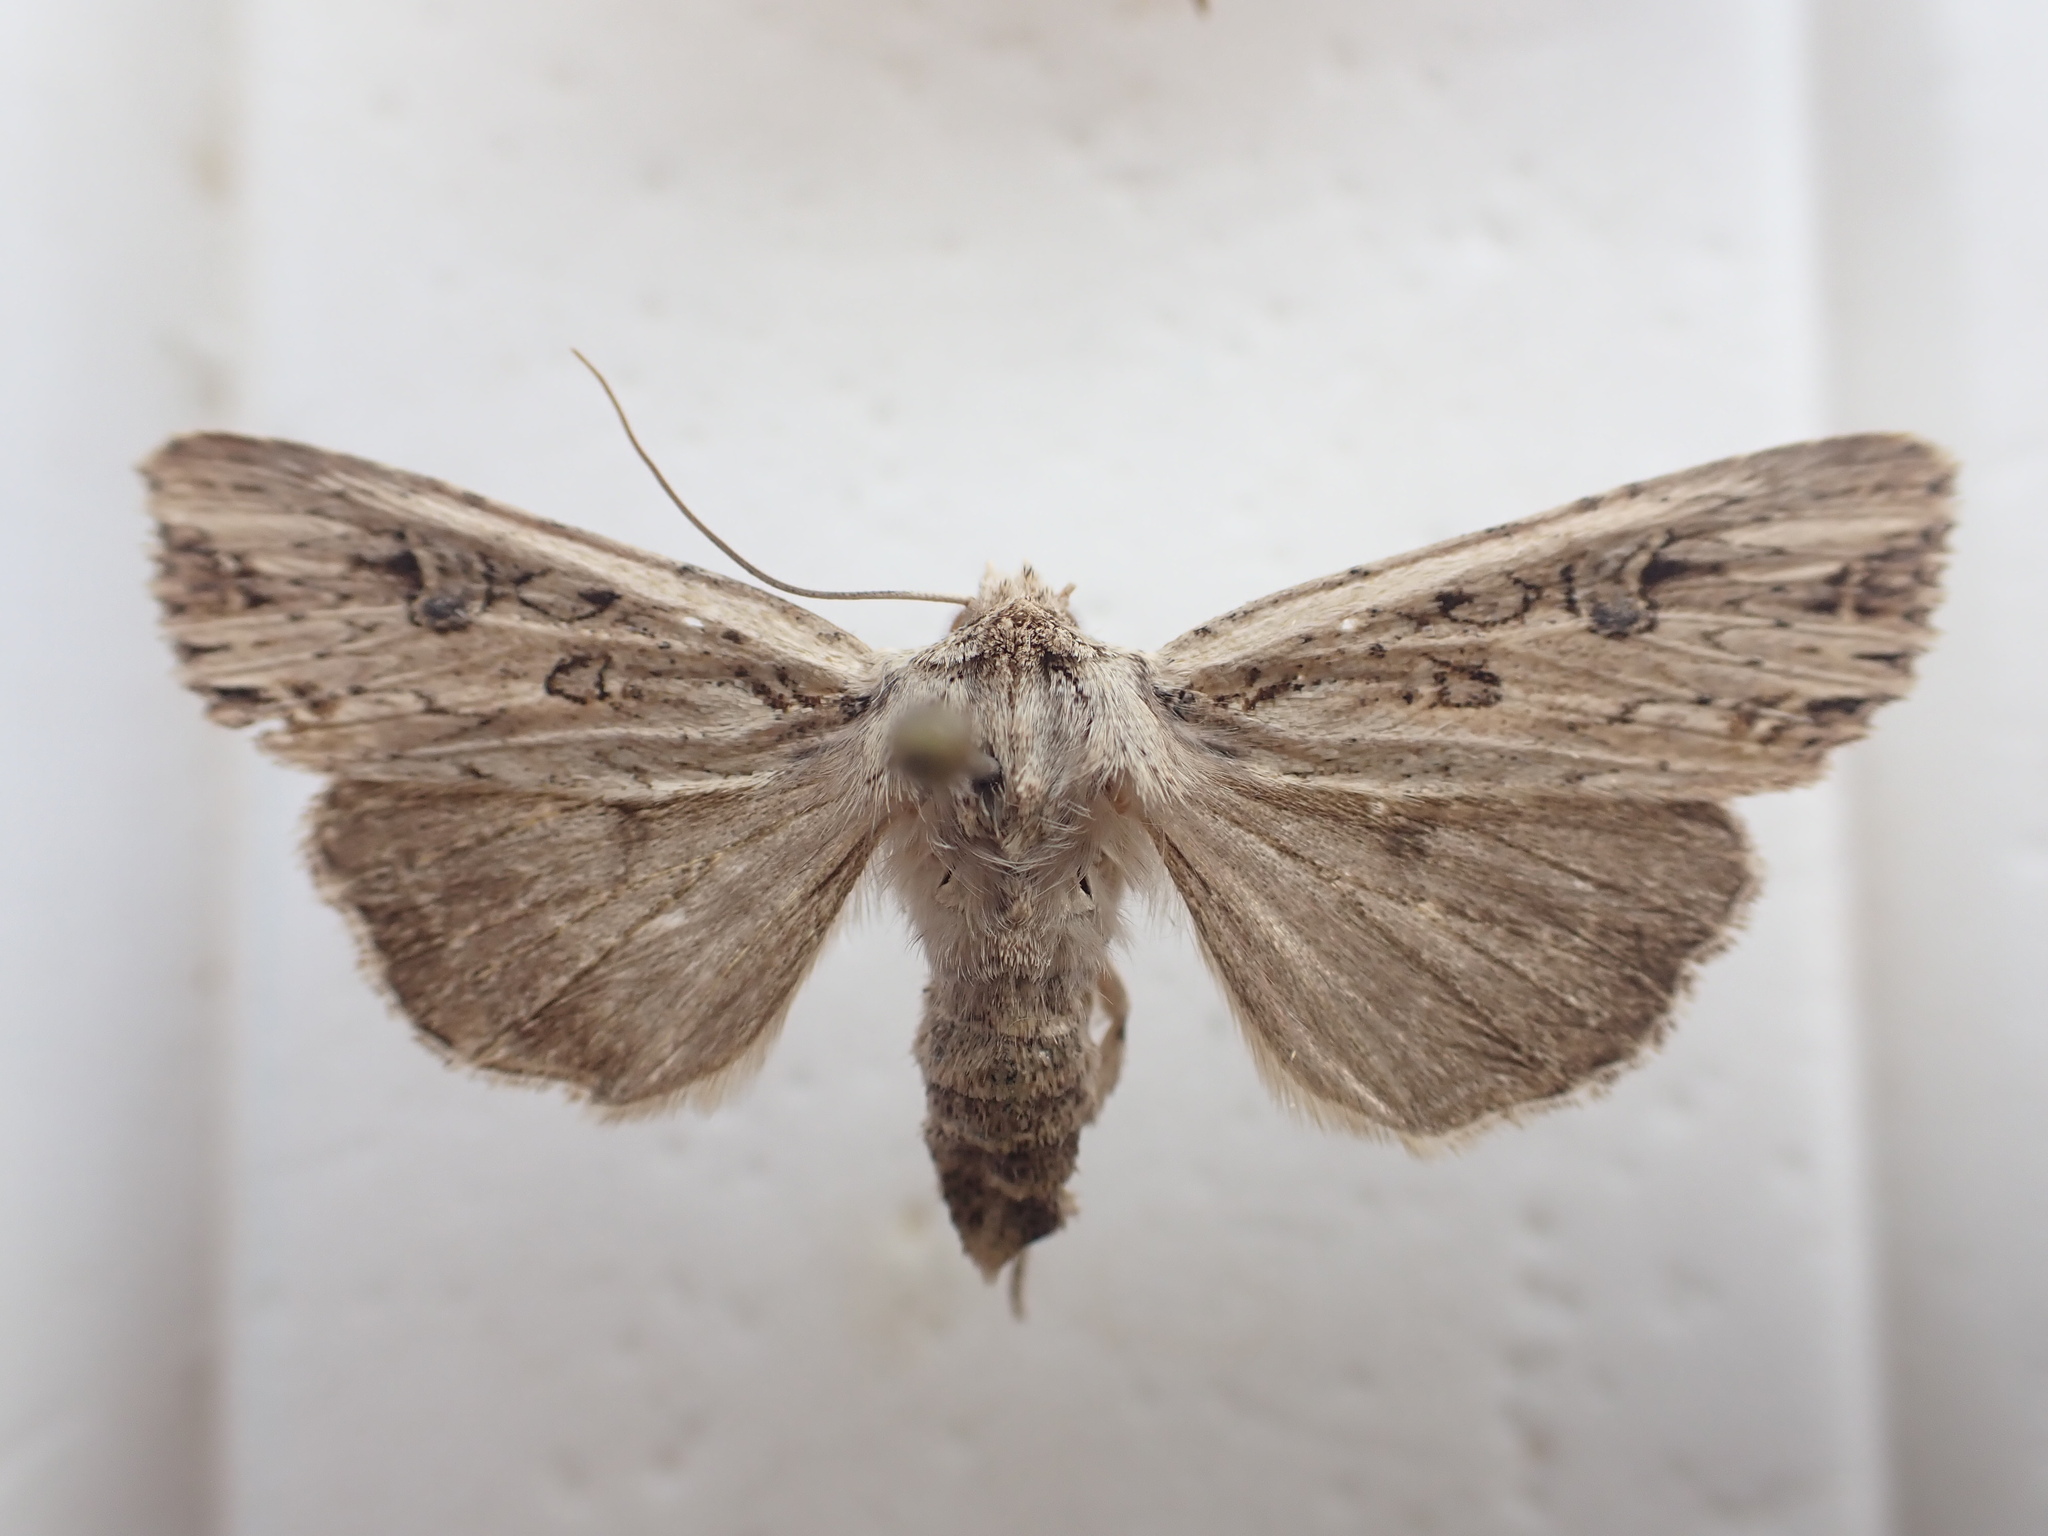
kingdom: Animalia
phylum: Arthropoda
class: Insecta
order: Lepidoptera
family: Noctuidae
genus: Ichneutica
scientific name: Ichneutica lignana
